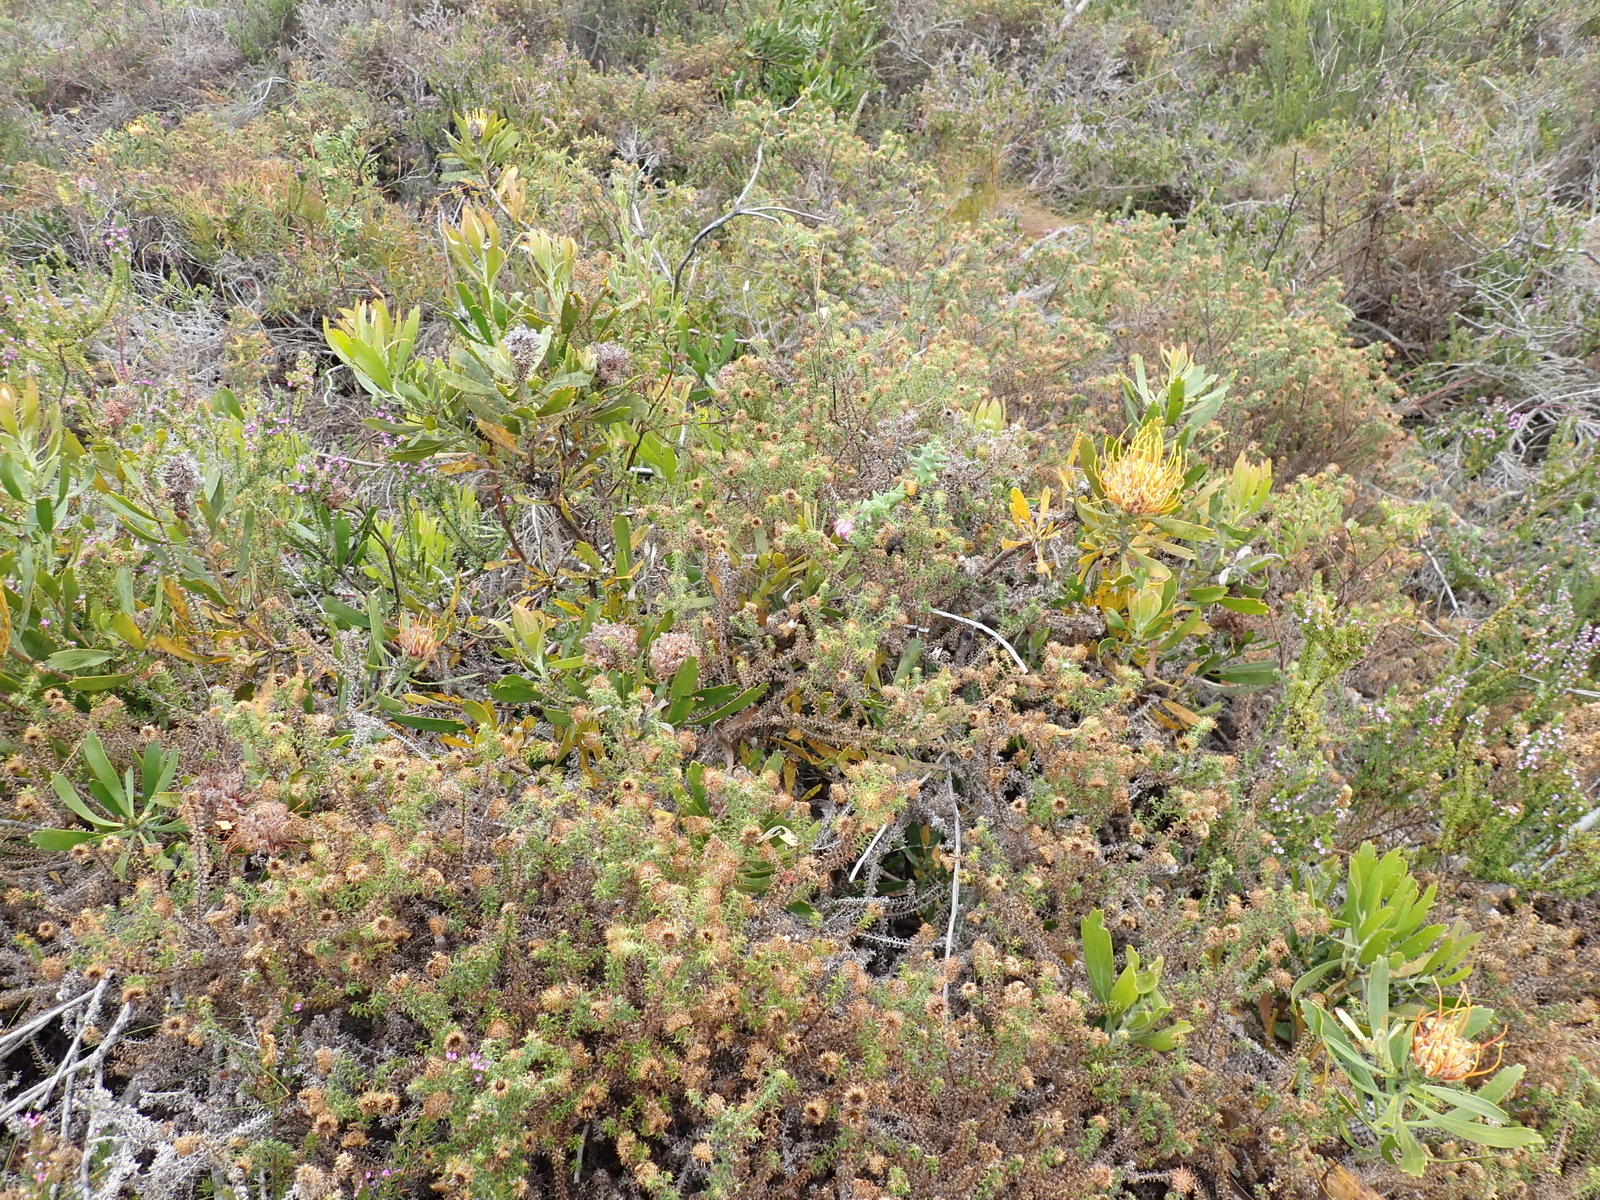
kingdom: Plantae
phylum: Tracheophyta
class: Magnoliopsida
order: Proteales
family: Proteaceae
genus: Leucospermum
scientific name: Leucospermum cuneiforme
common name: Common pincushion
